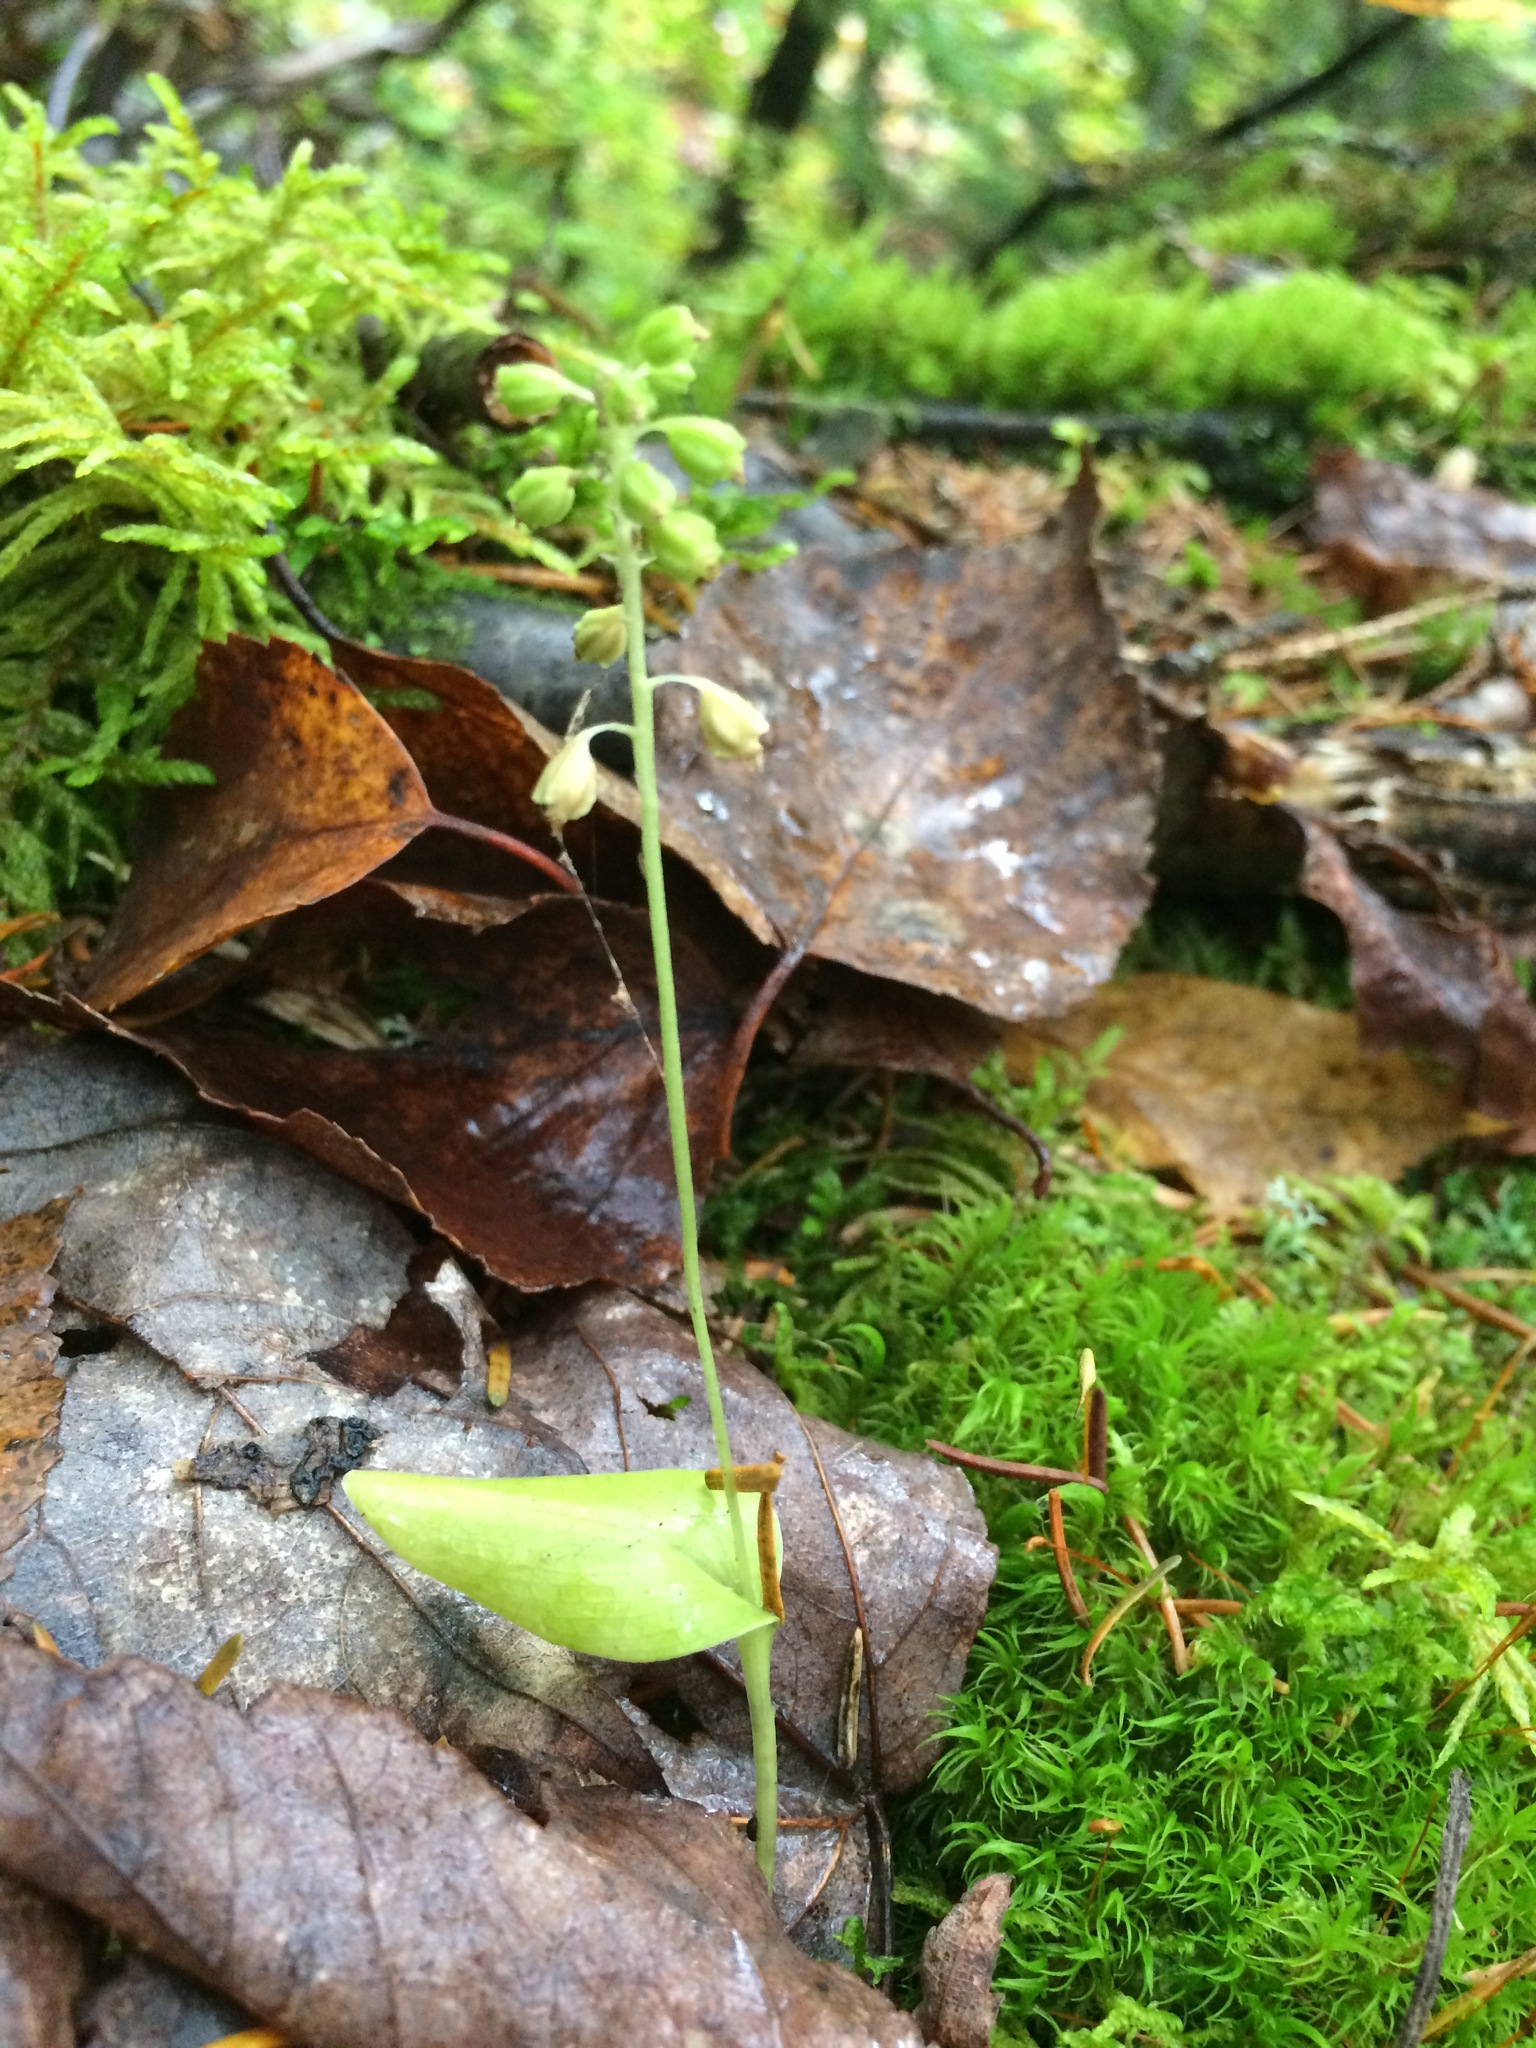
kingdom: Plantae
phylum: Tracheophyta
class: Liliopsida
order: Asparagales
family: Orchidaceae
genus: Malaxis
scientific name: Malaxis unifolia
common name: Green adder's-mouth
